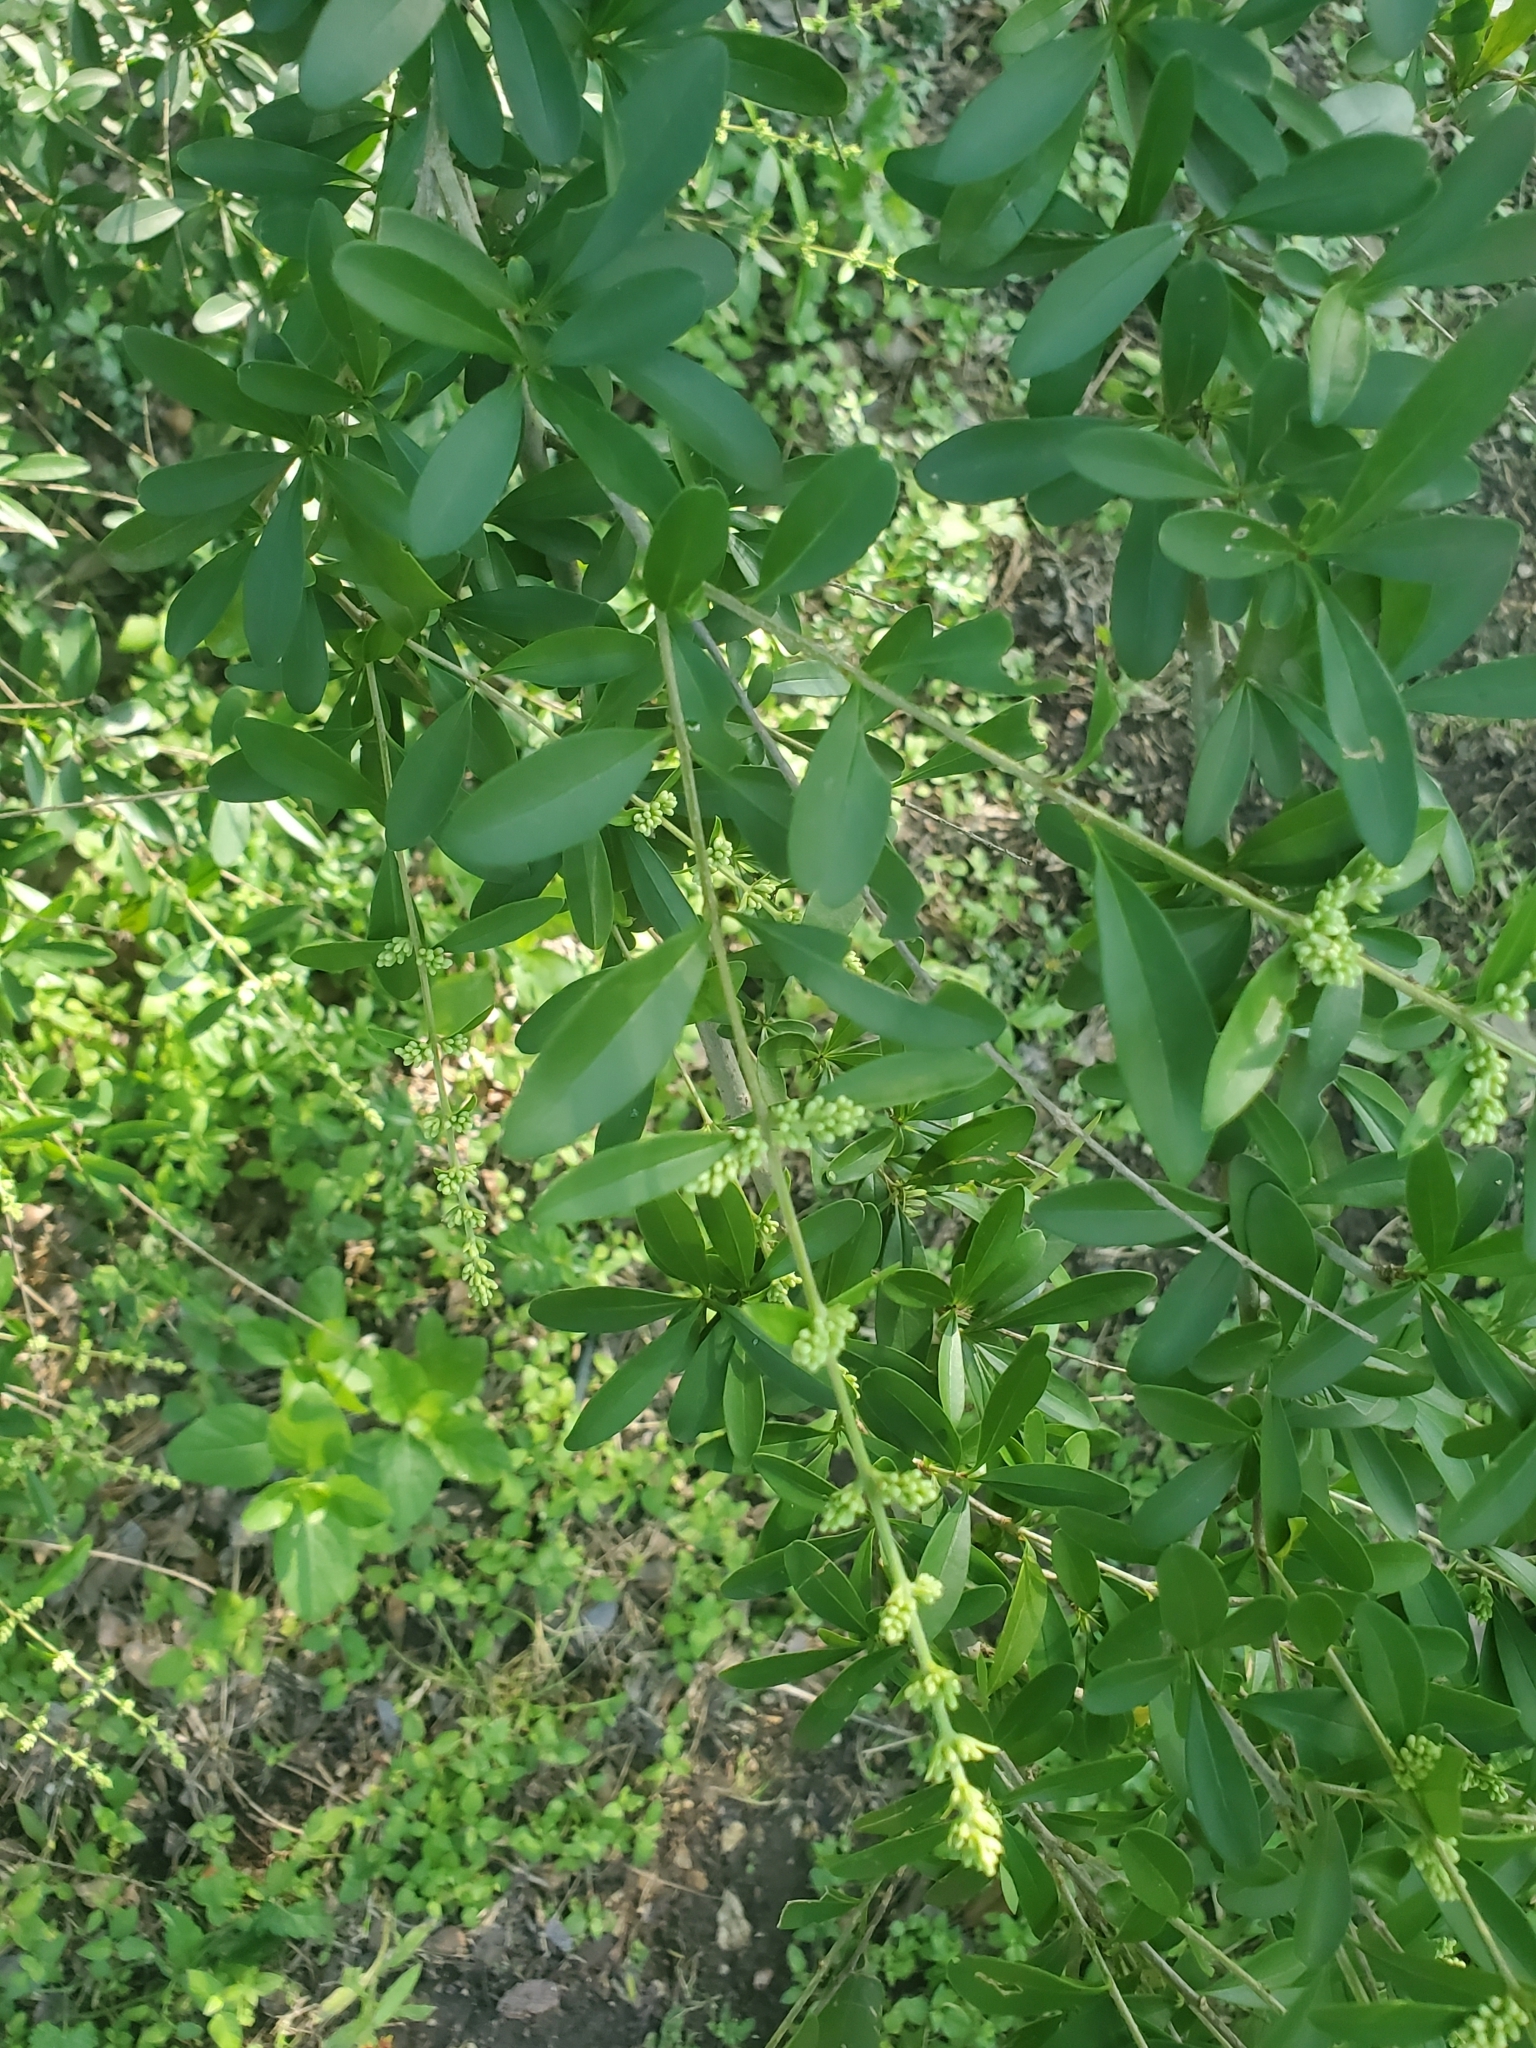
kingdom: Plantae
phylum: Tracheophyta
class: Magnoliopsida
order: Lamiales
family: Oleaceae
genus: Ligustrum
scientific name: Ligustrum quihoui
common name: Waxyleaf privet
